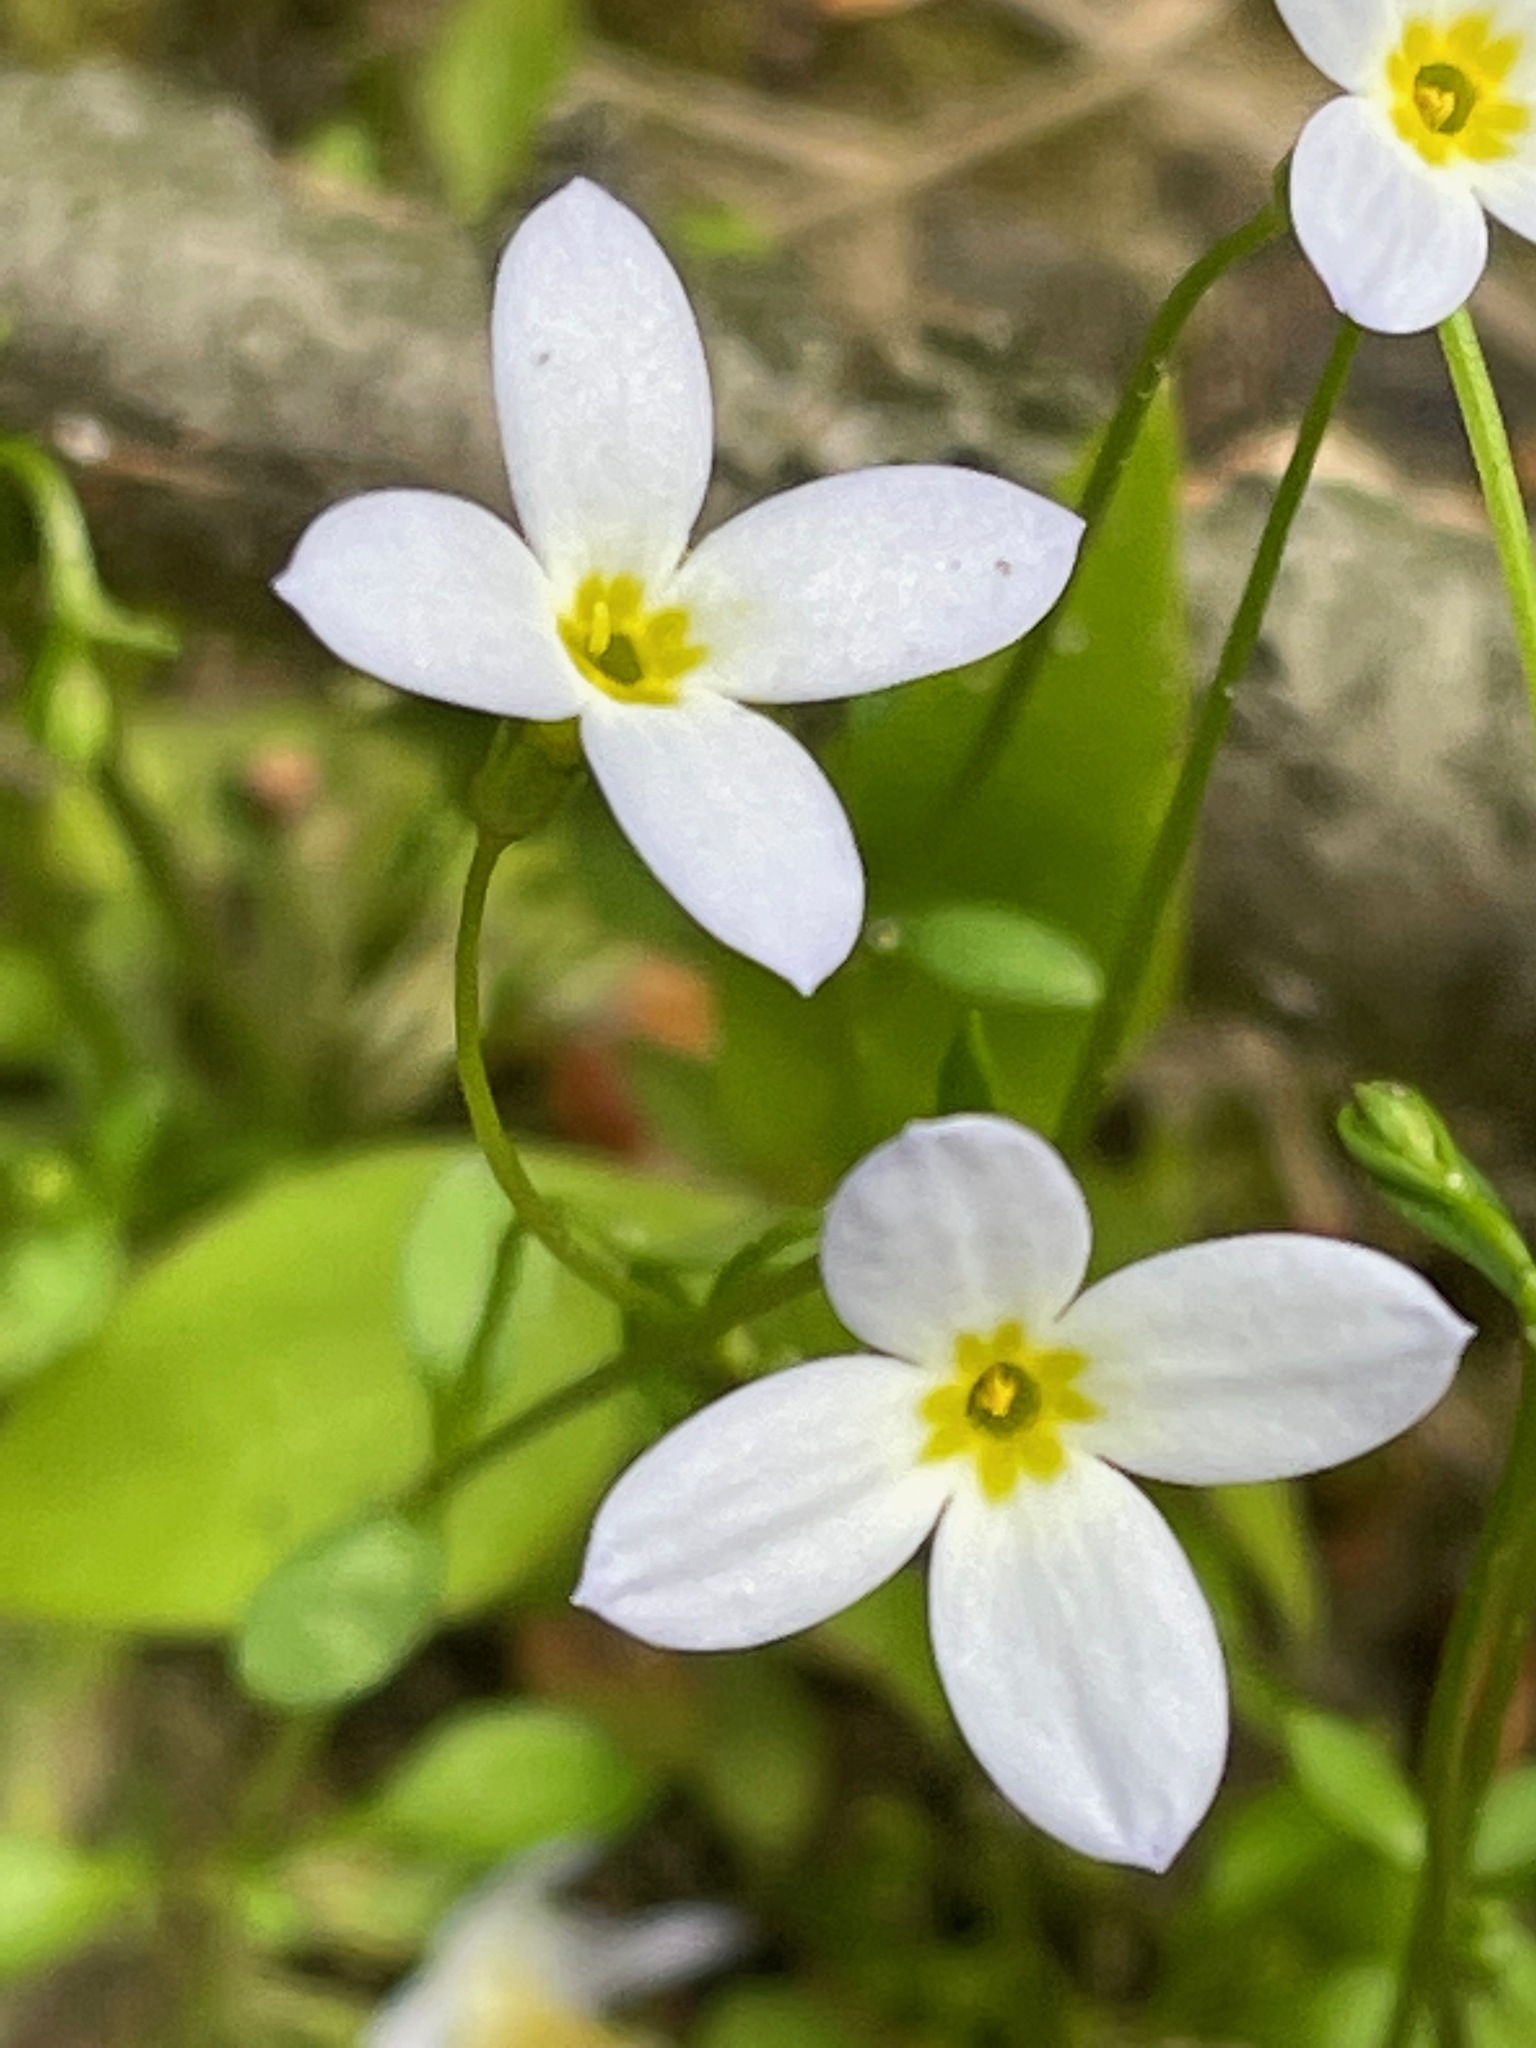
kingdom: Plantae
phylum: Tracheophyta
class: Magnoliopsida
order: Gentianales
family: Rubiaceae
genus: Houstonia
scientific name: Houstonia caerulea
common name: Bluets
